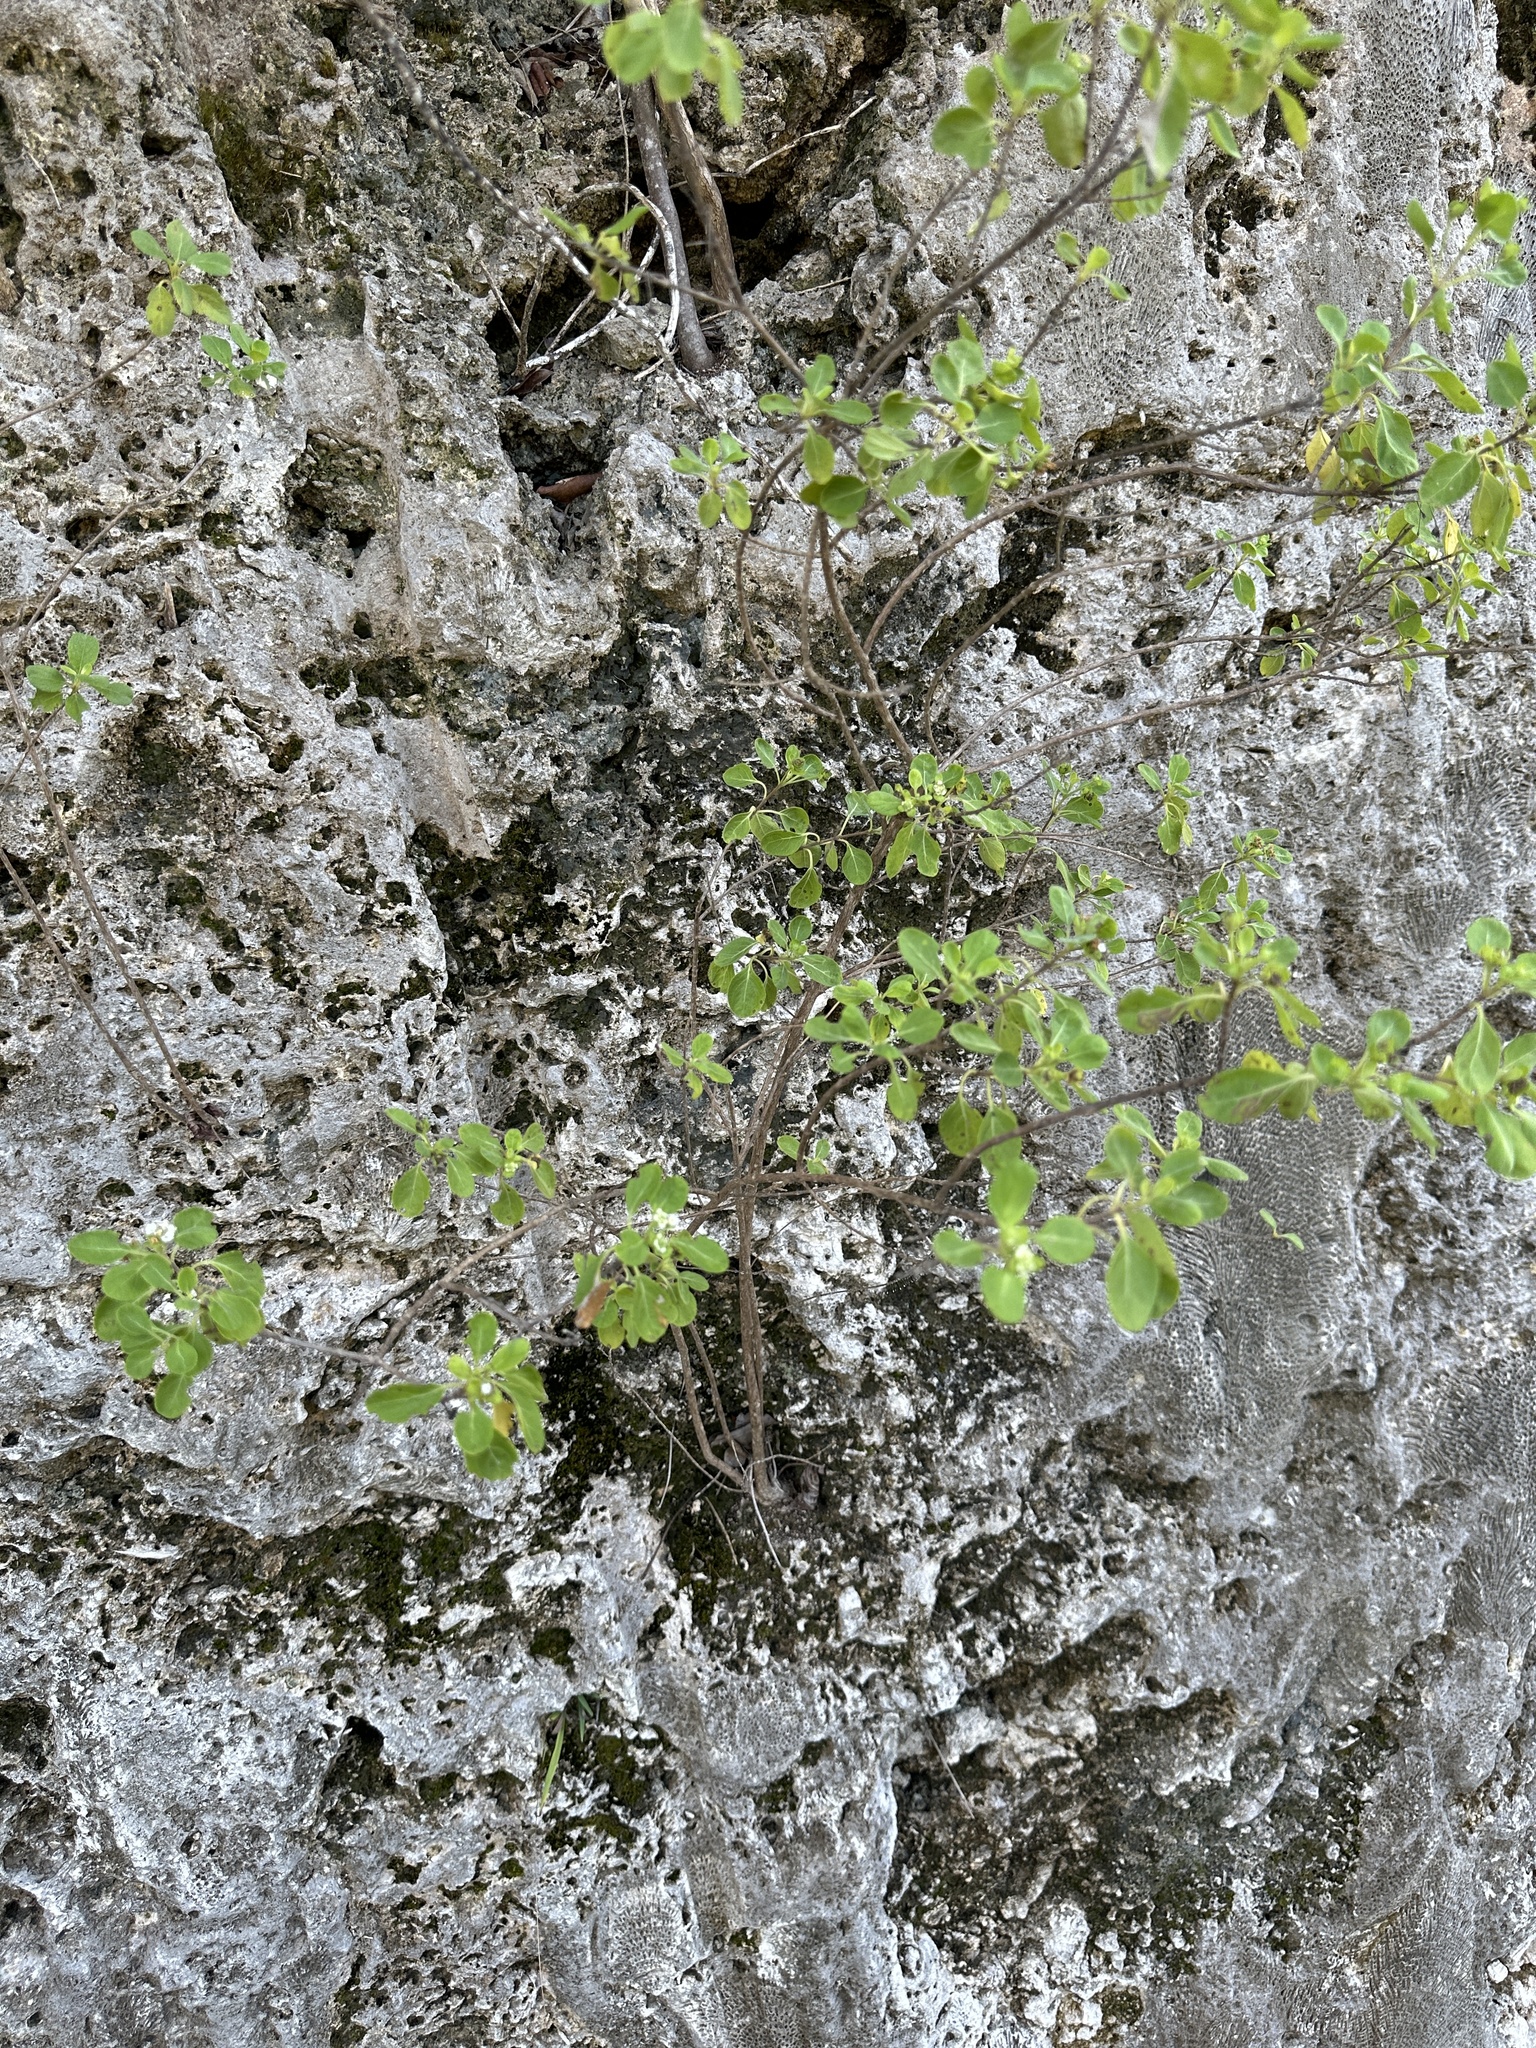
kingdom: Plantae
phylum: Tracheophyta
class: Magnoliopsida
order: Lamiales
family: Verbenaceae
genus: Lantana
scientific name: Lantana involucrata
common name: Black sage
